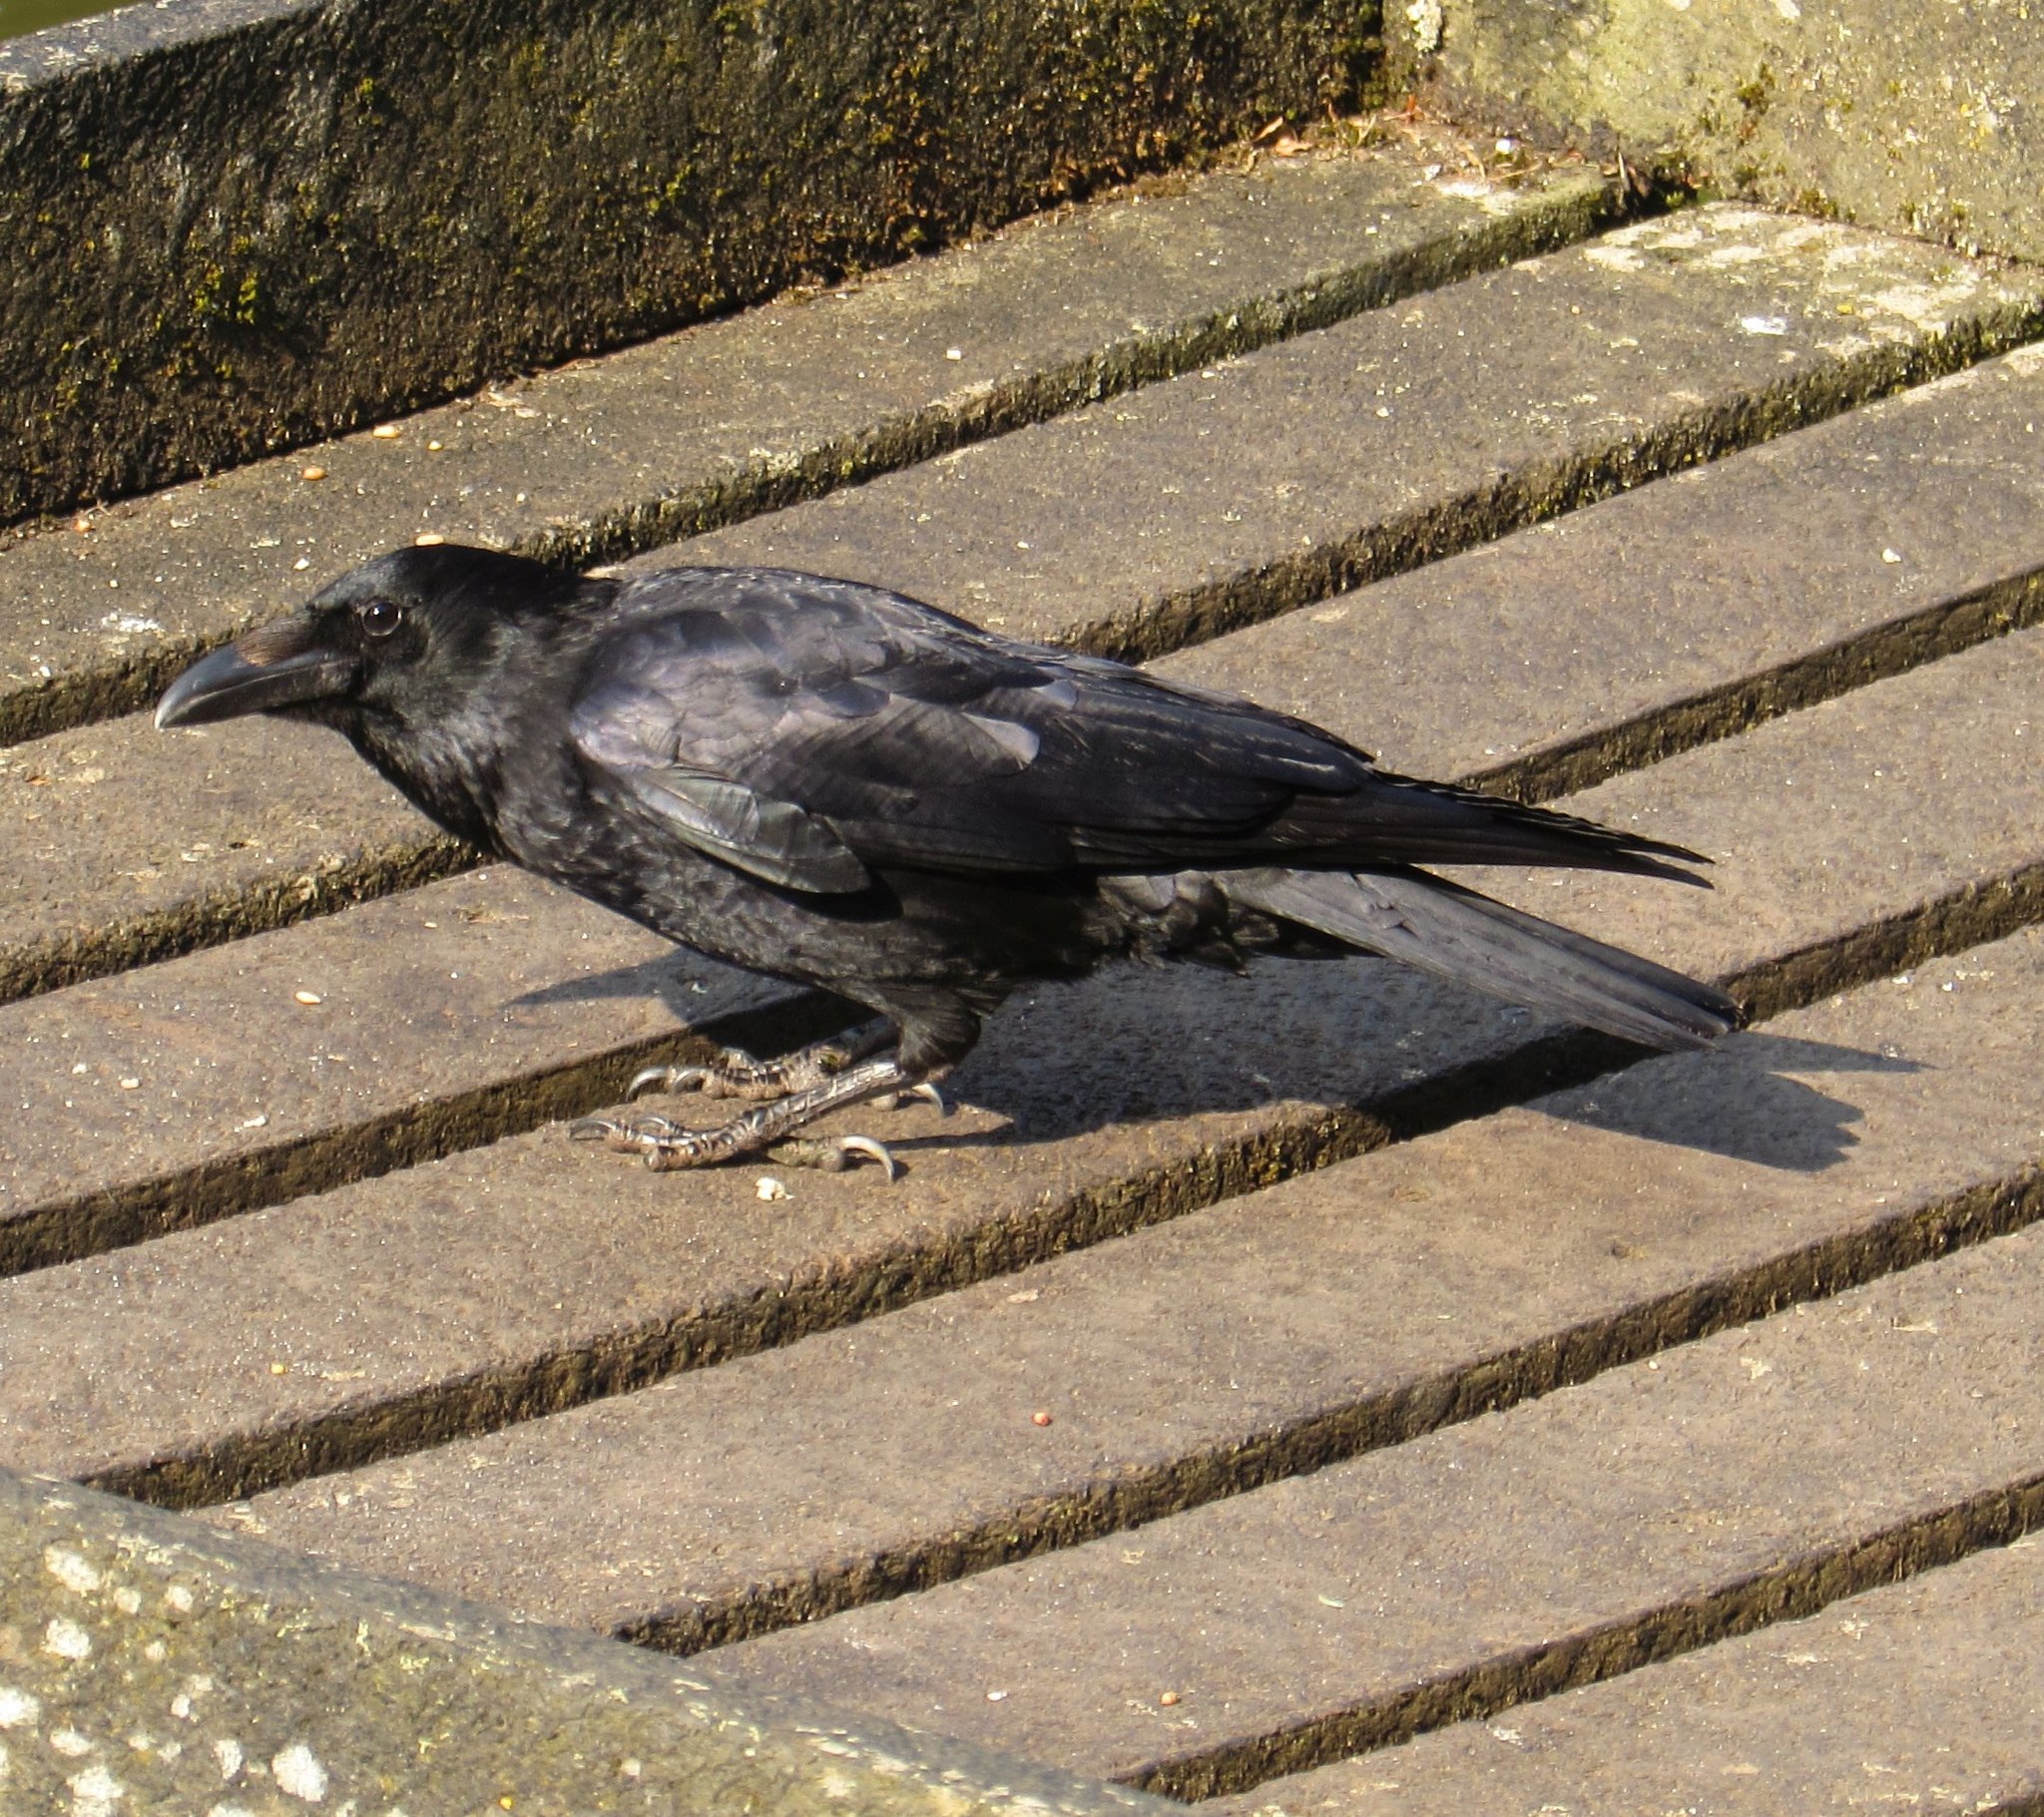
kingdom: Animalia
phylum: Chordata
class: Aves
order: Passeriformes
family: Corvidae
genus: Corvus
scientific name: Corvus corone
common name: Carrion crow
